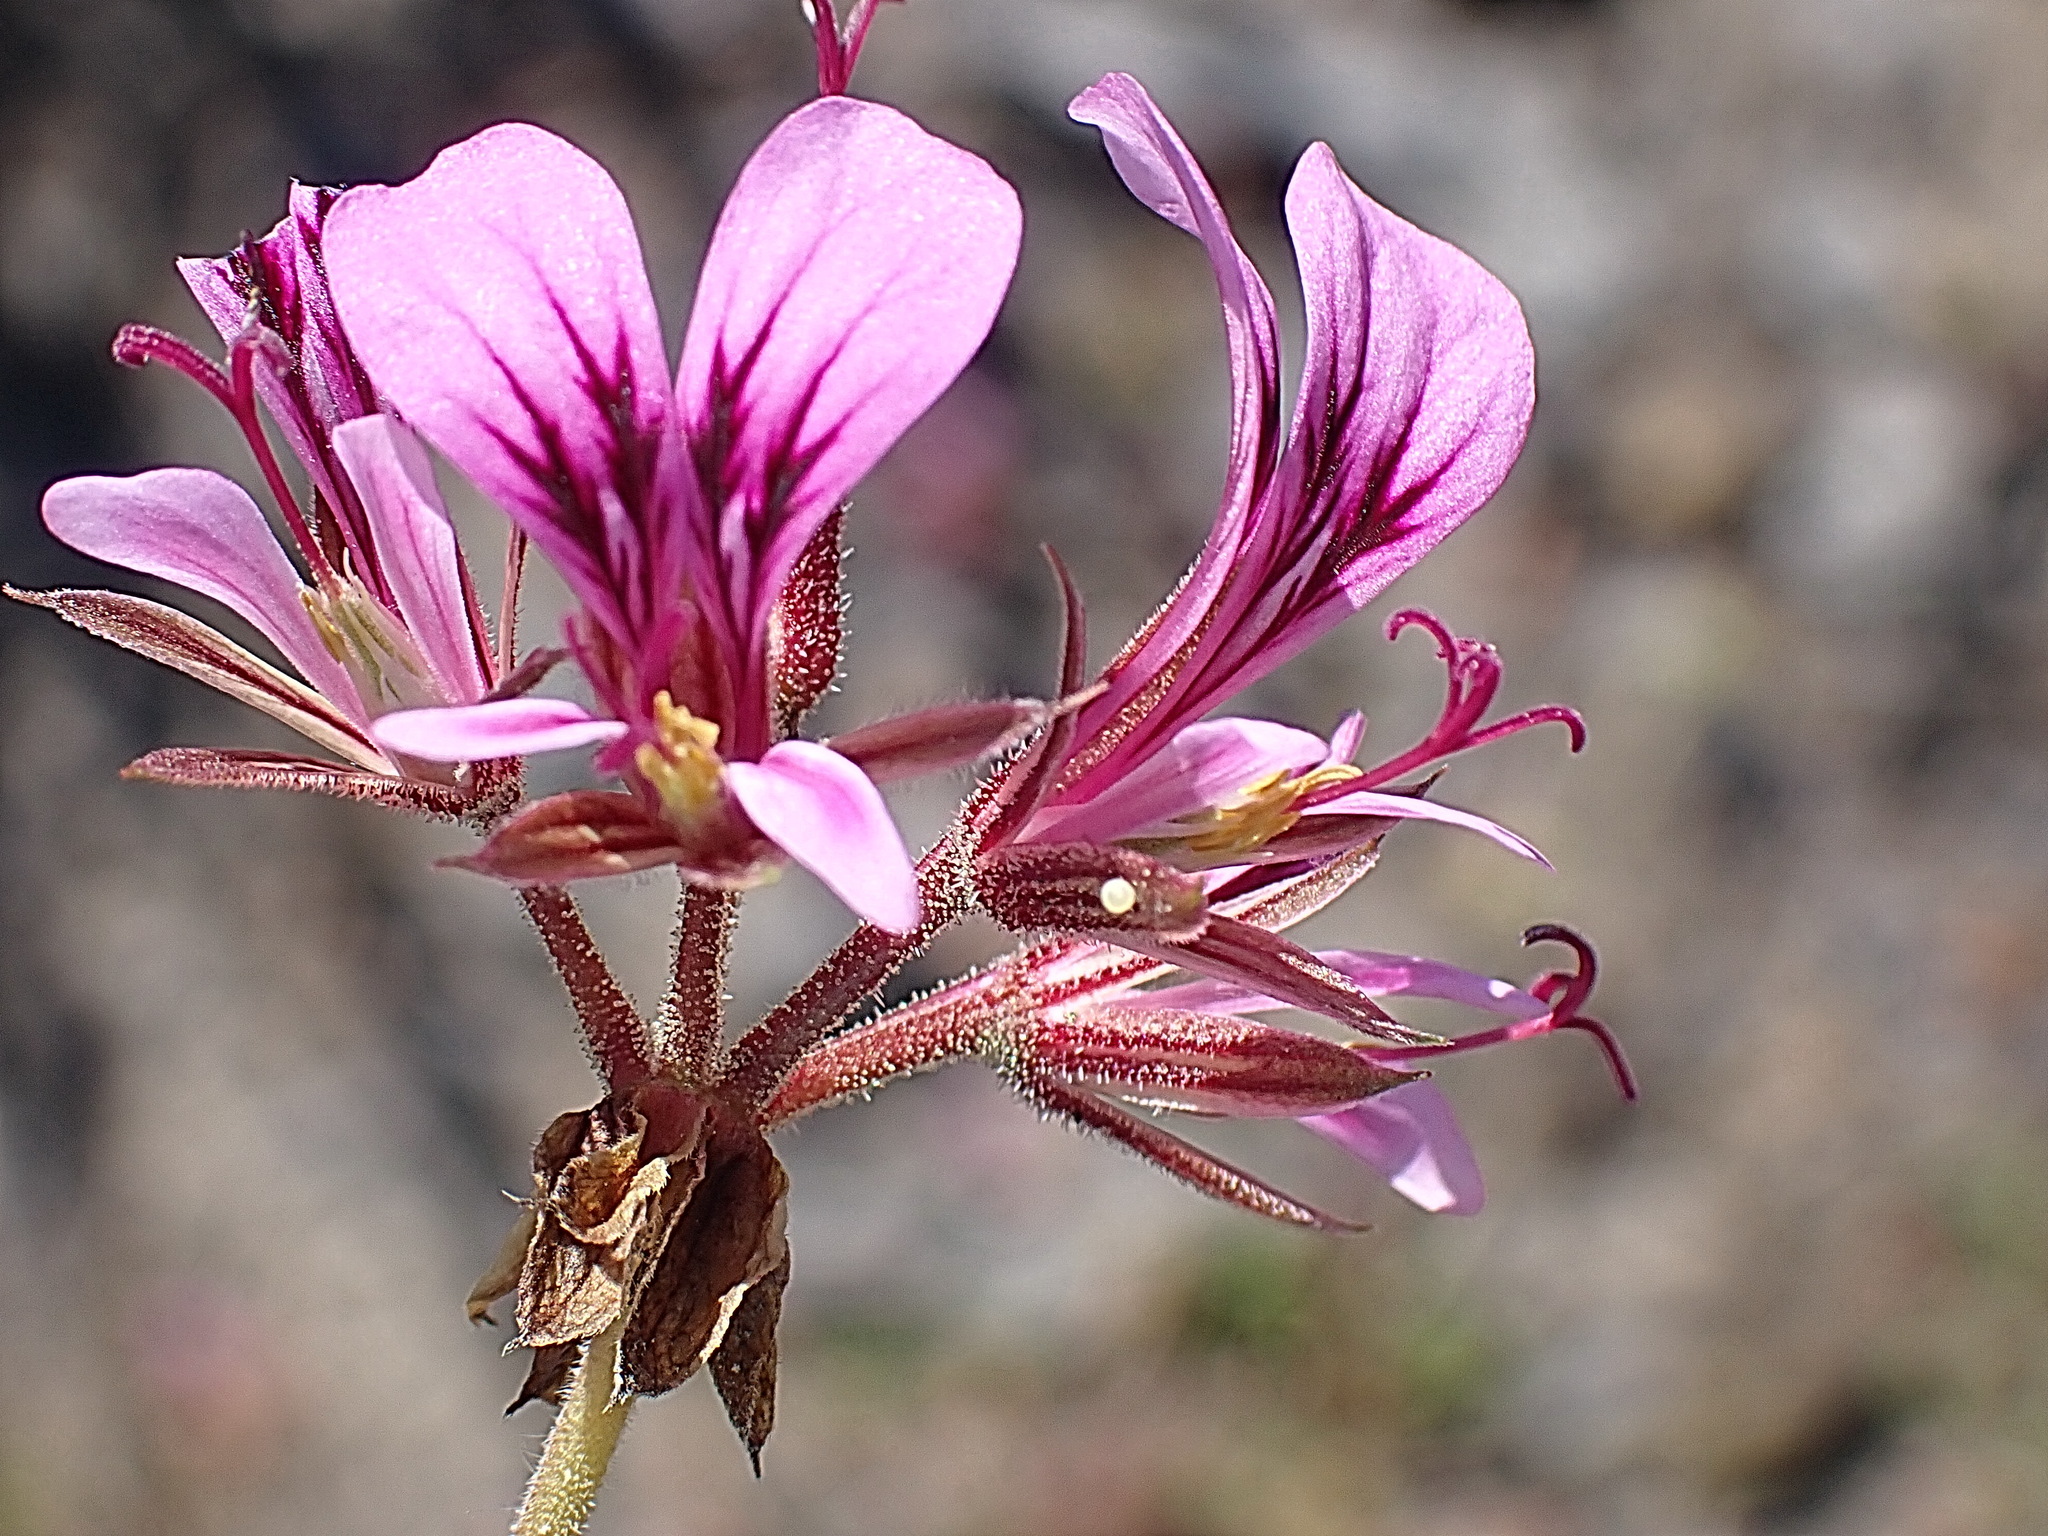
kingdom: Plantae
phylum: Tracheophyta
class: Magnoliopsida
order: Geraniales
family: Geraniaceae
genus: Pelargonium
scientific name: Pelargonium multicaule
